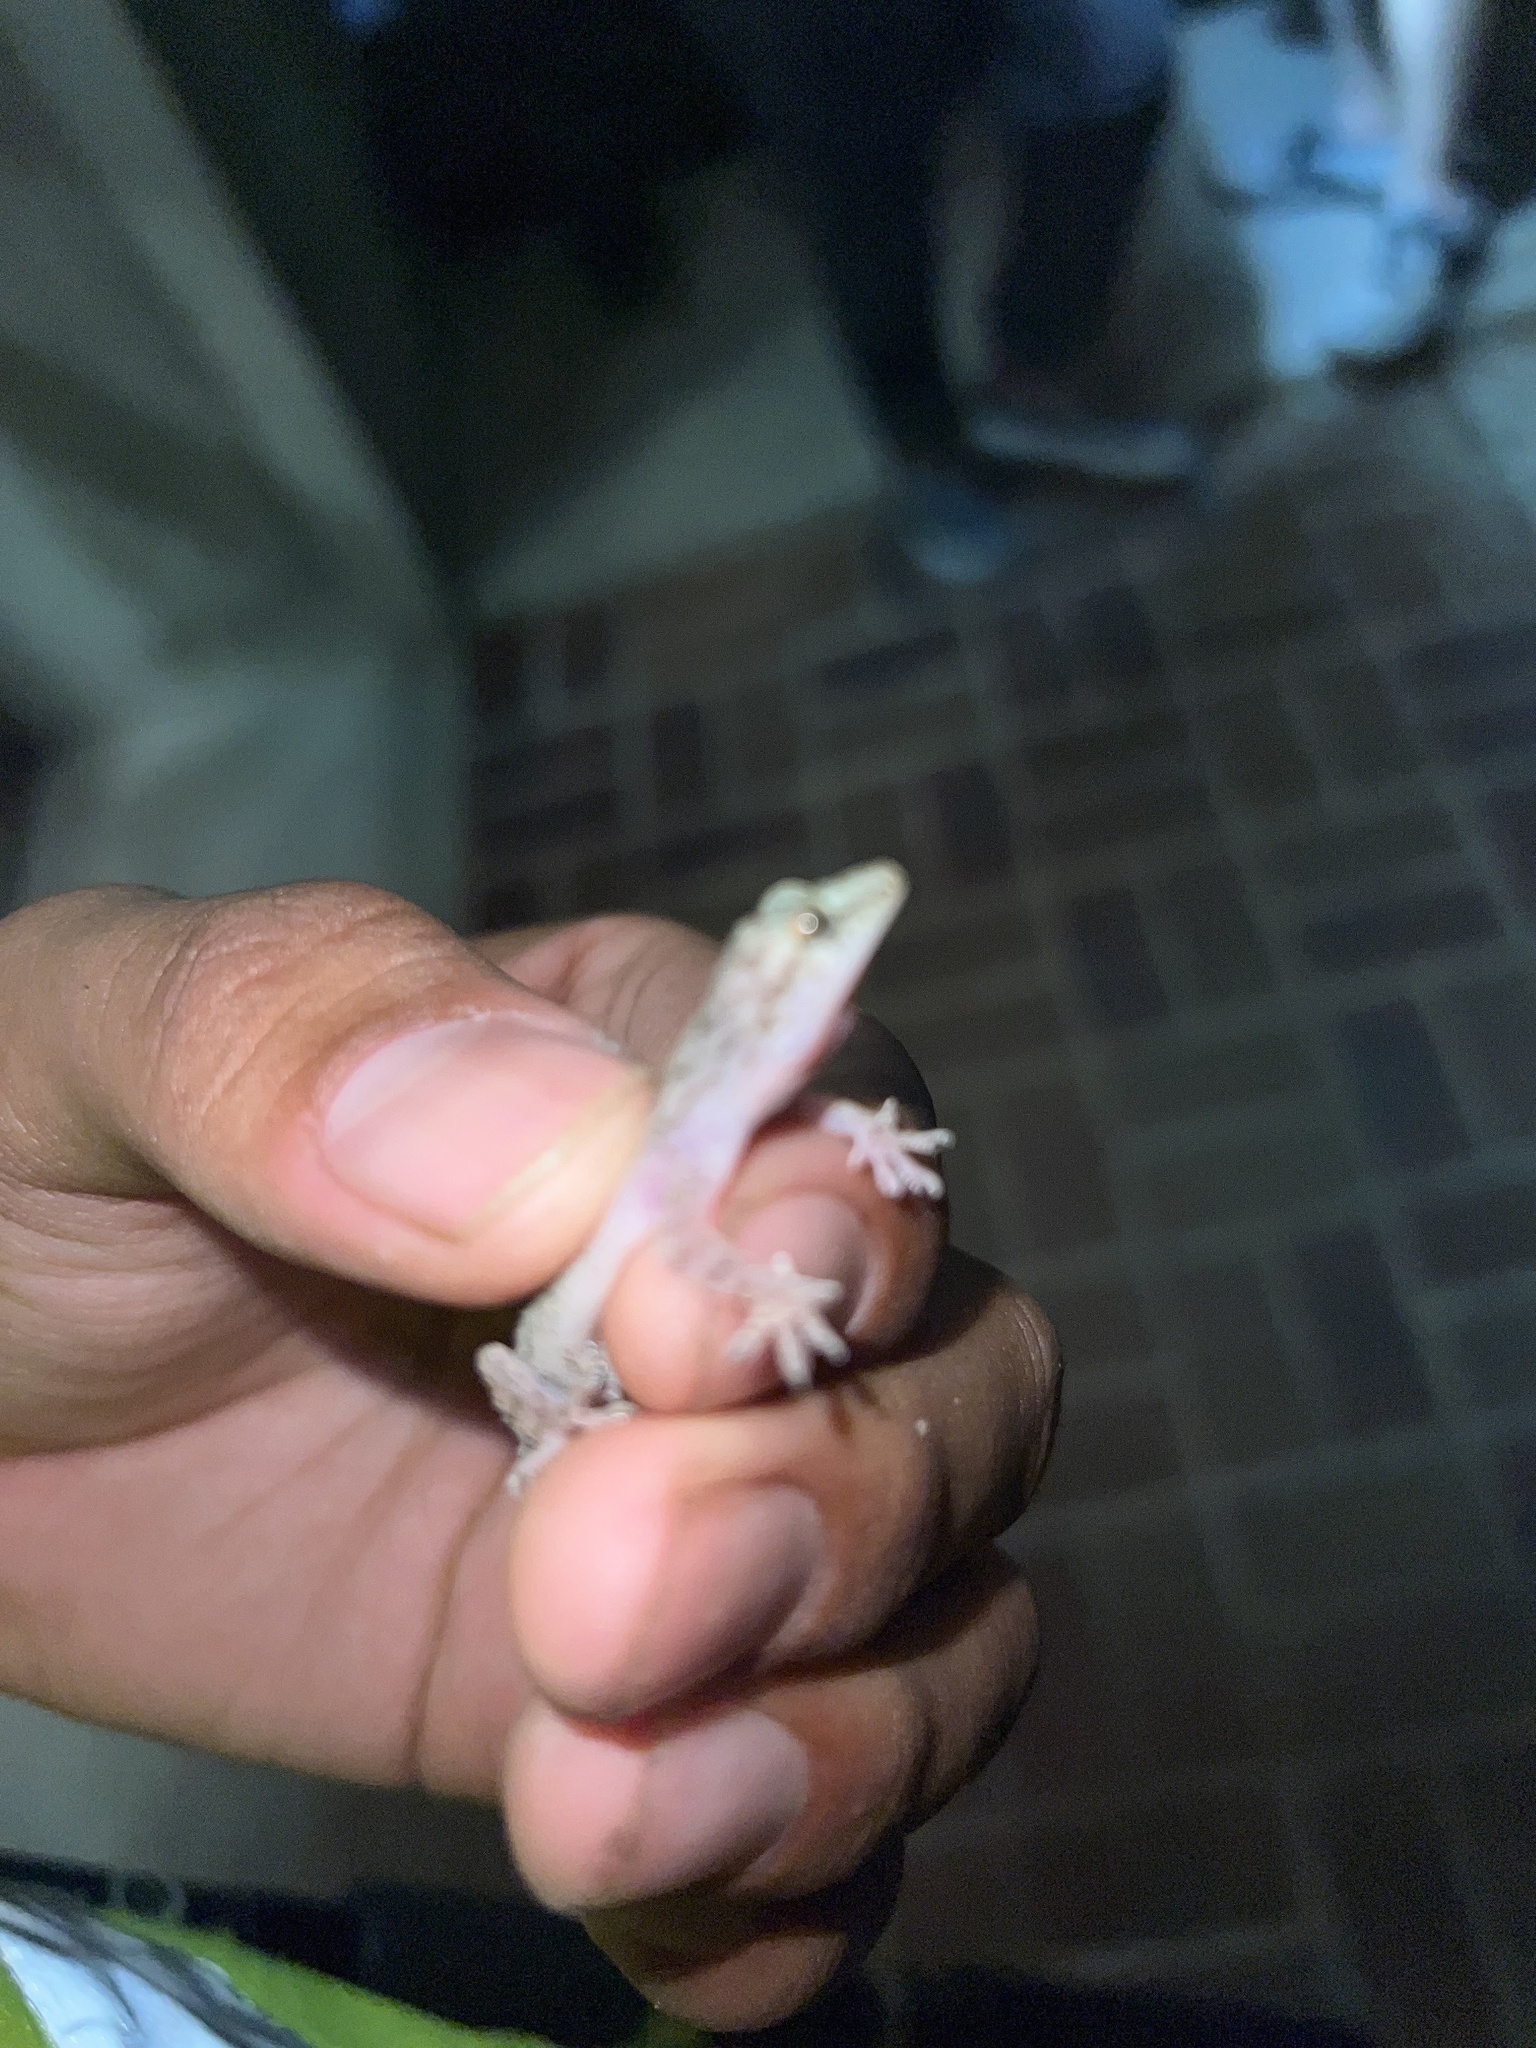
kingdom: Animalia
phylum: Chordata
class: Squamata
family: Gekkonidae
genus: Hemidactylus
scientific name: Hemidactylus parvimaculatus
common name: Spotted house gecko
